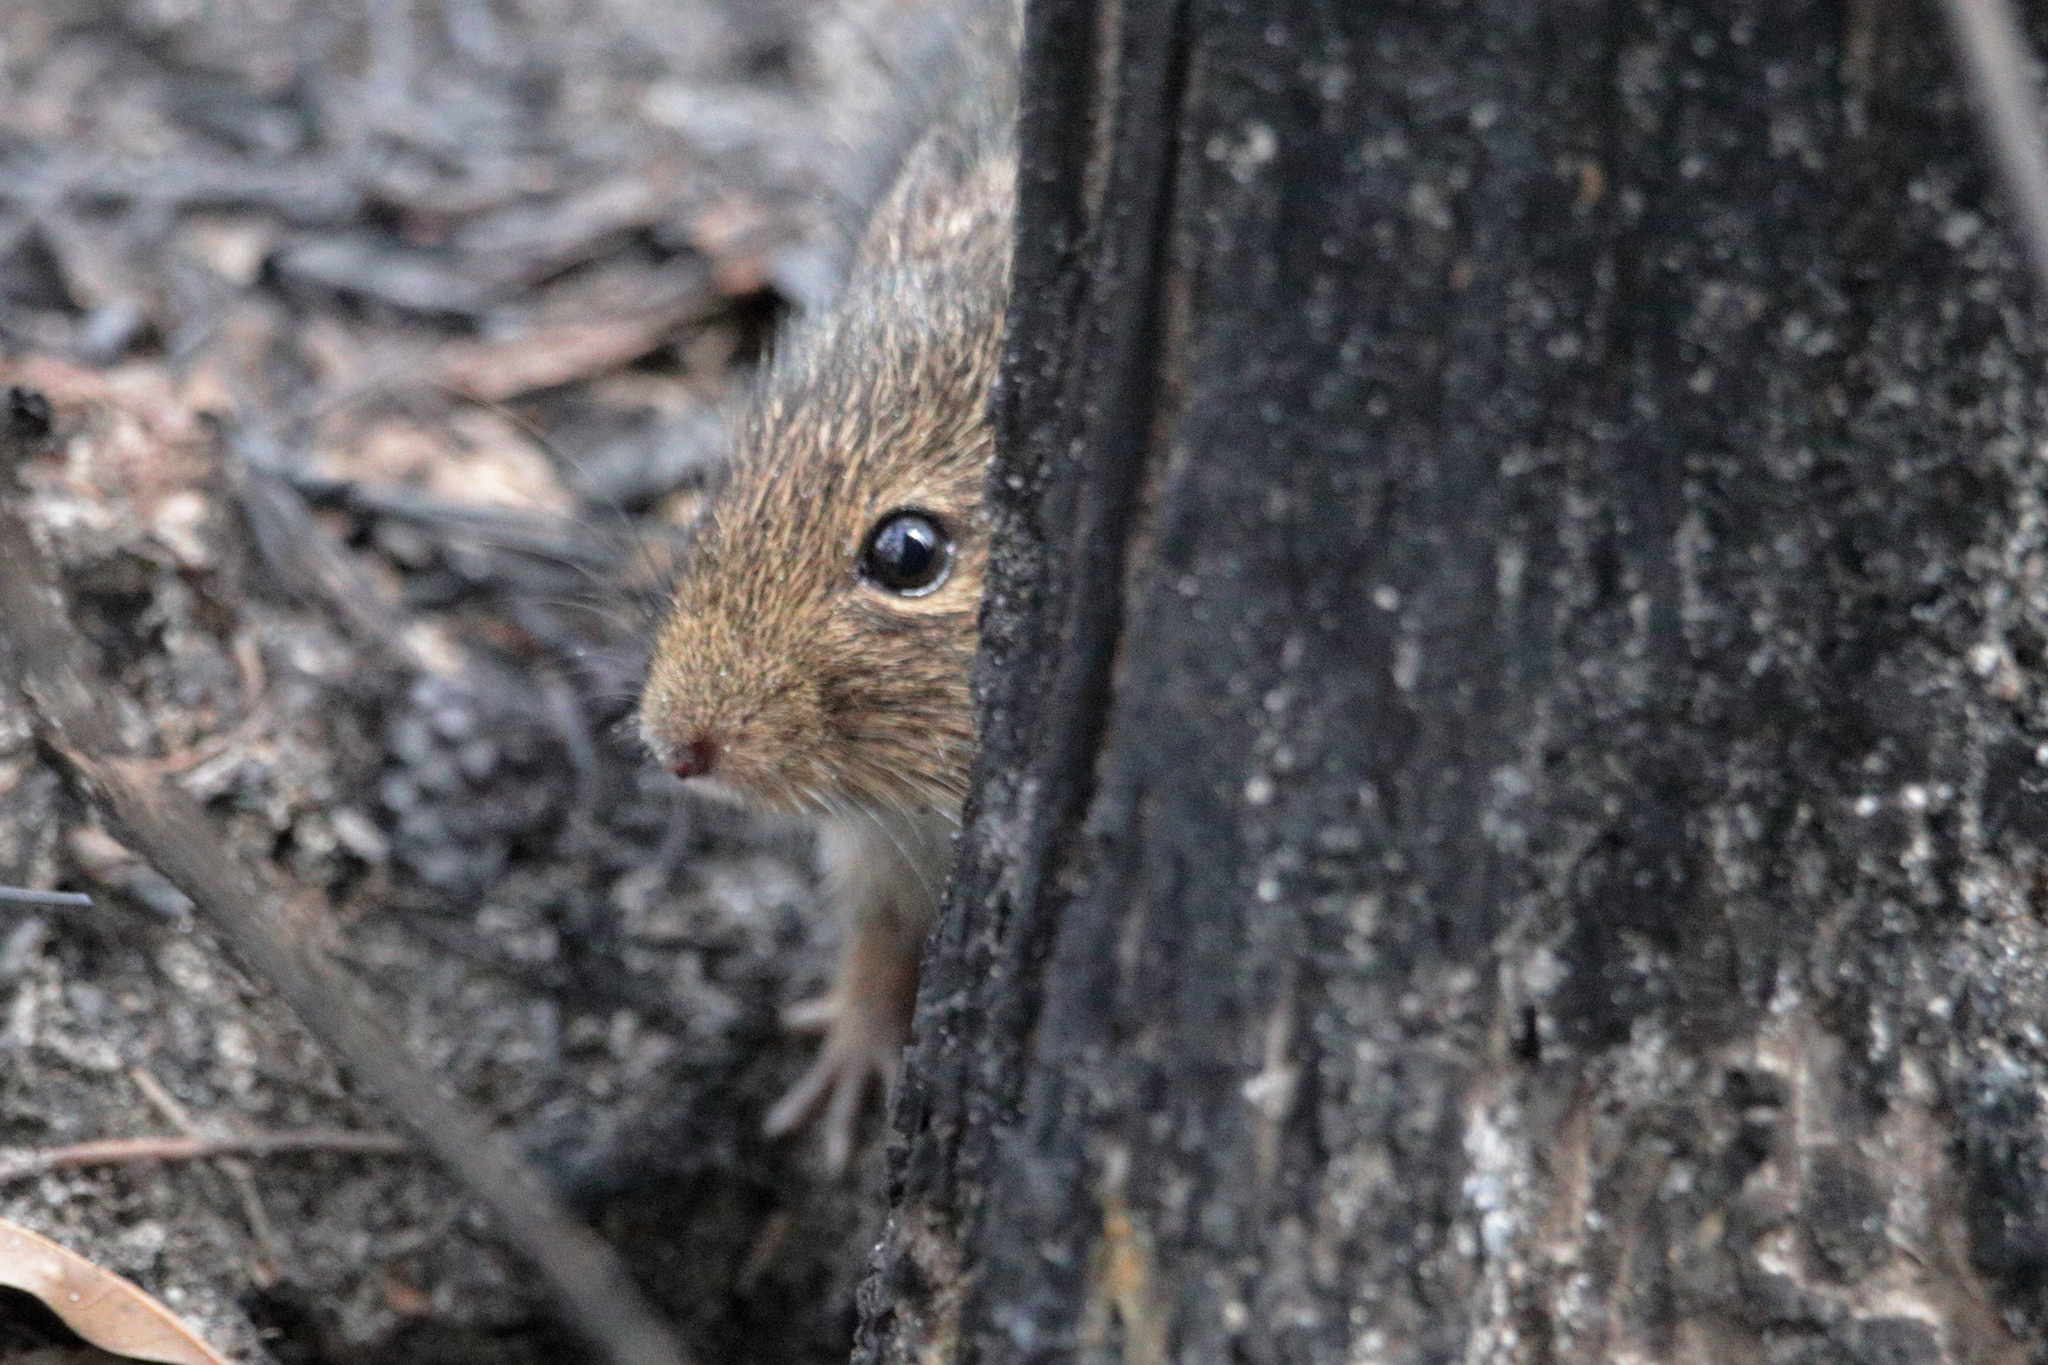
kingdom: Animalia
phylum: Chordata
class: Mammalia
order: Rodentia
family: Cricetidae
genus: Sigmodon
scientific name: Sigmodon hispidus
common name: Hispid cotton rat
